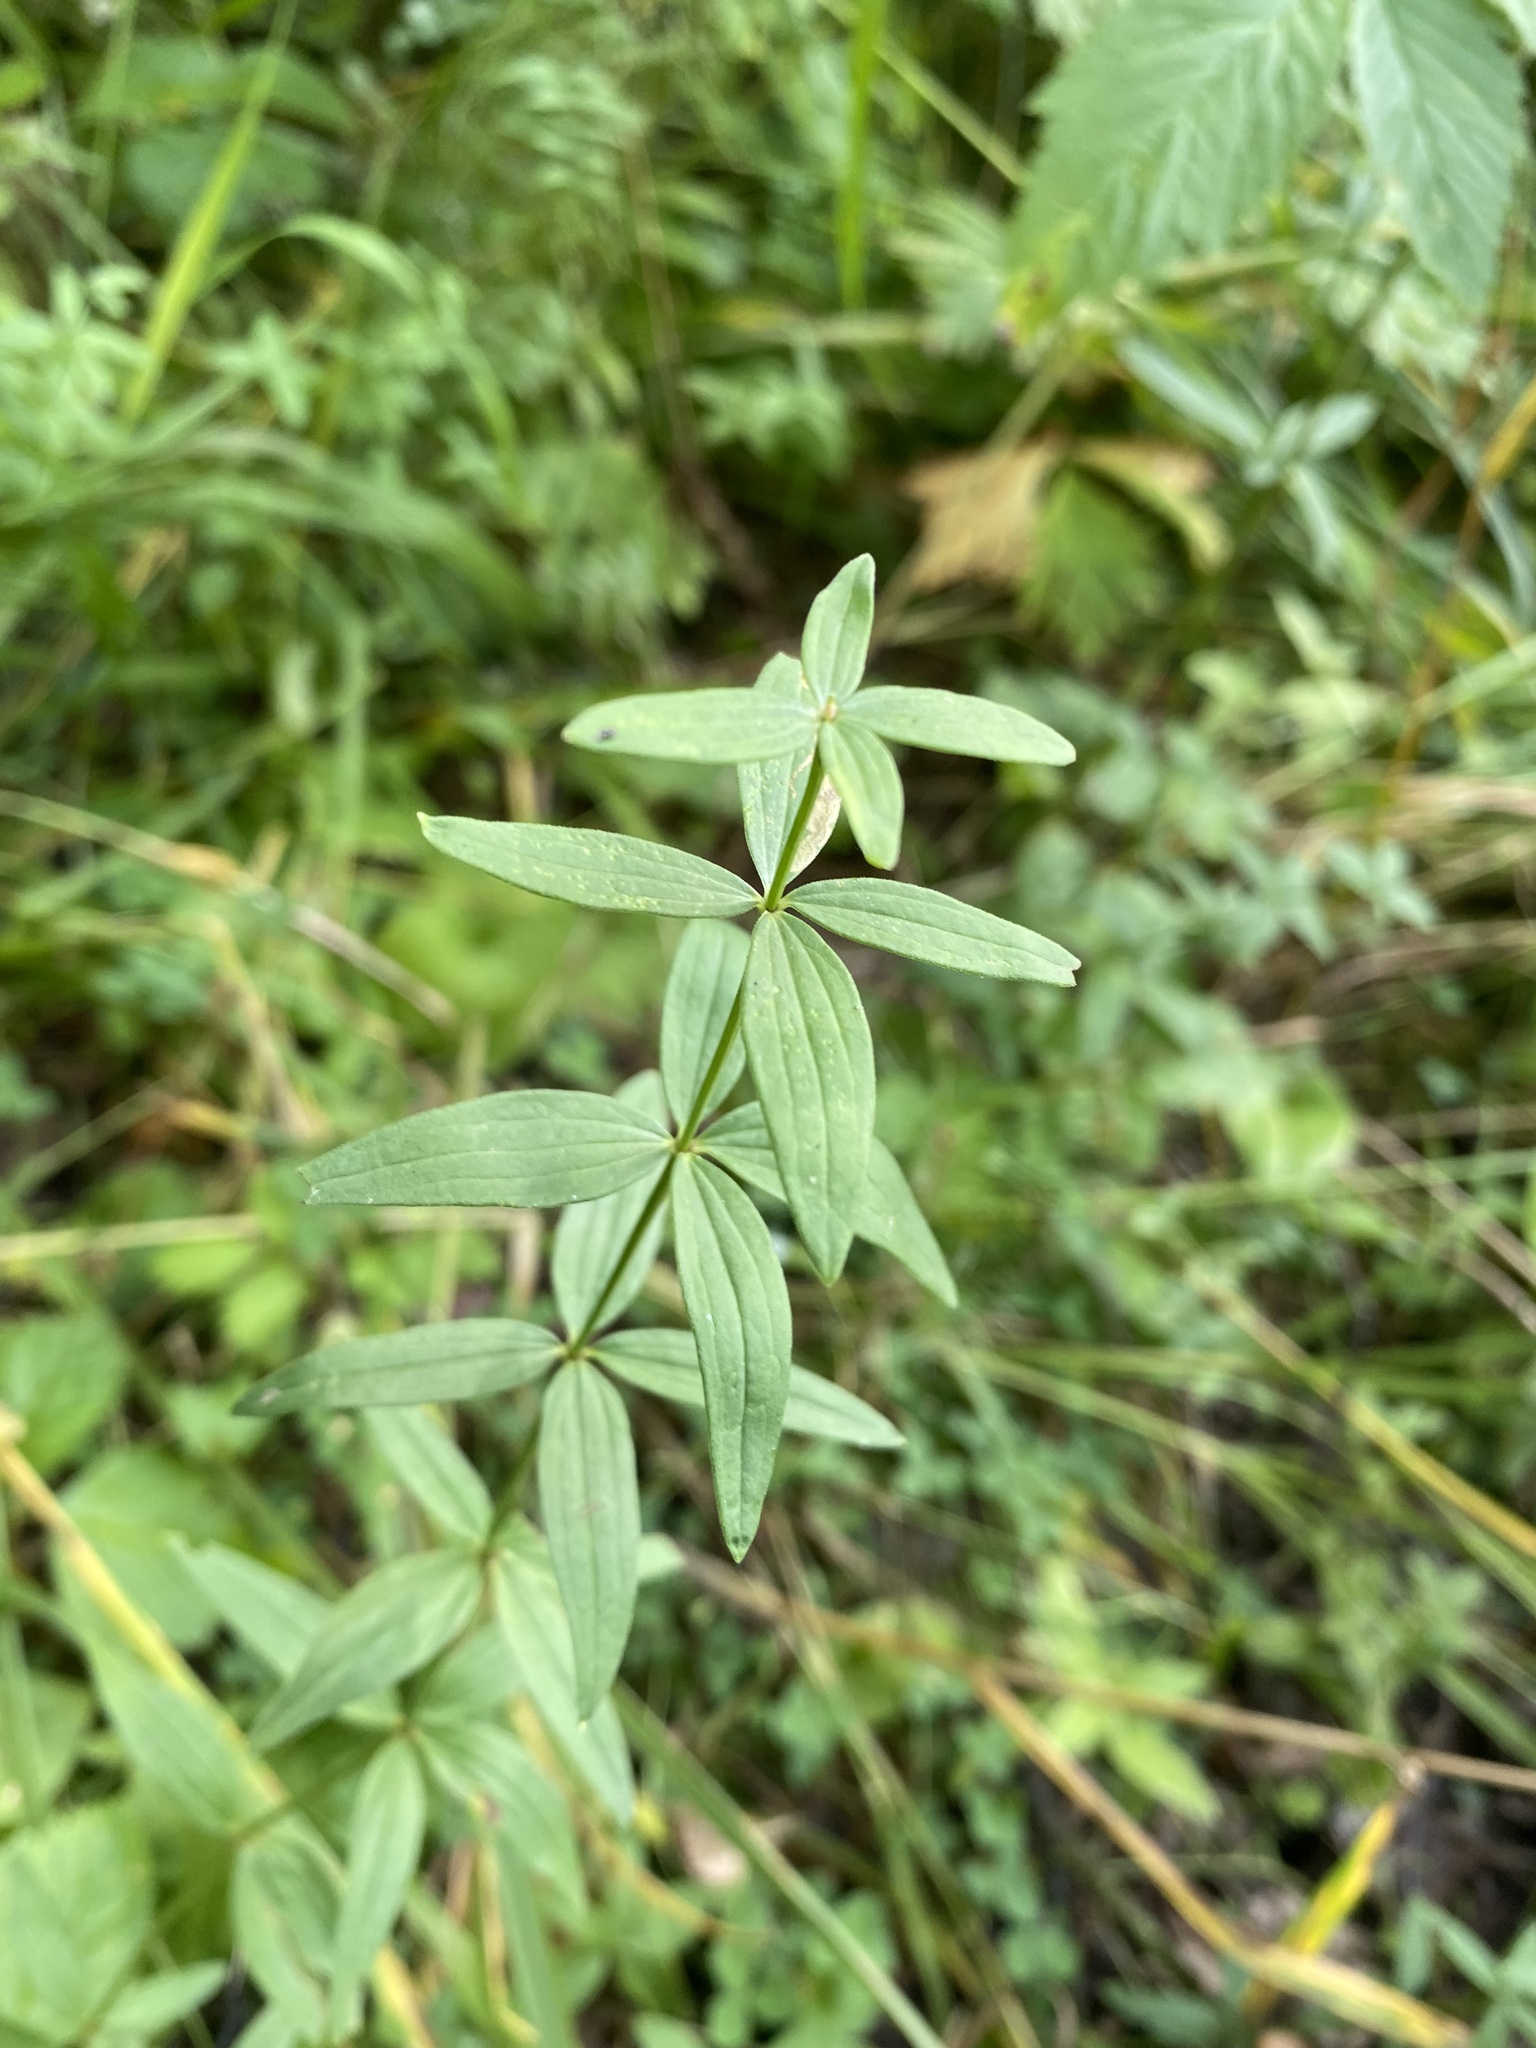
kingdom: Plantae
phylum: Tracheophyta
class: Magnoliopsida
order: Gentianales
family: Rubiaceae
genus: Galium
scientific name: Galium boreale
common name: Northern bedstraw
